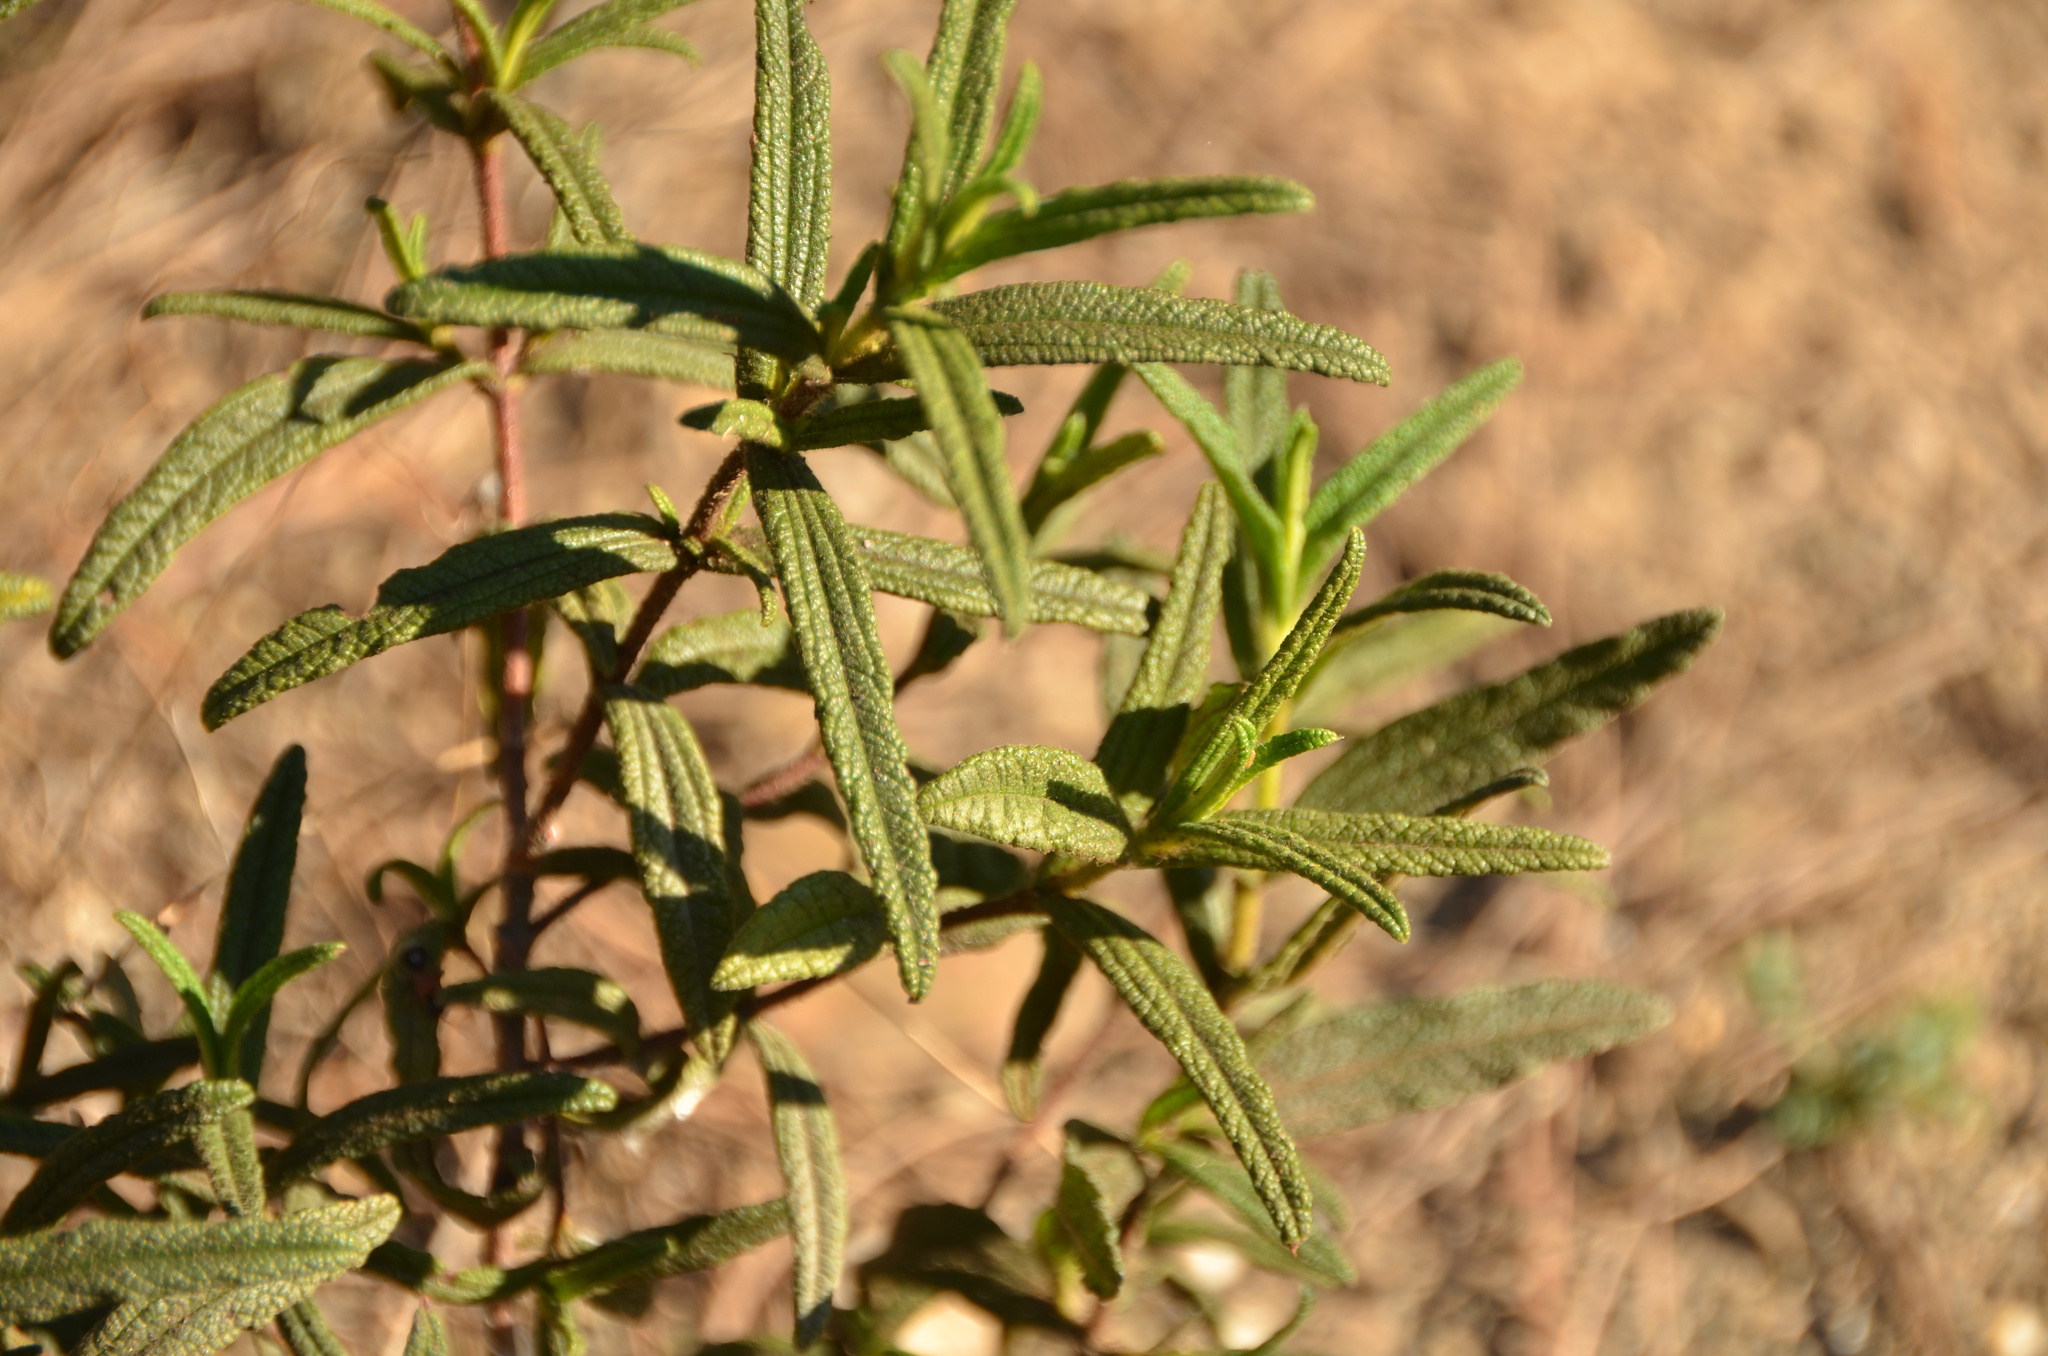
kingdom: Plantae
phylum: Tracheophyta
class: Magnoliopsida
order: Malvales
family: Cistaceae
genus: Cistus
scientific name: Cistus monspeliensis
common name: Montpelier cistus
